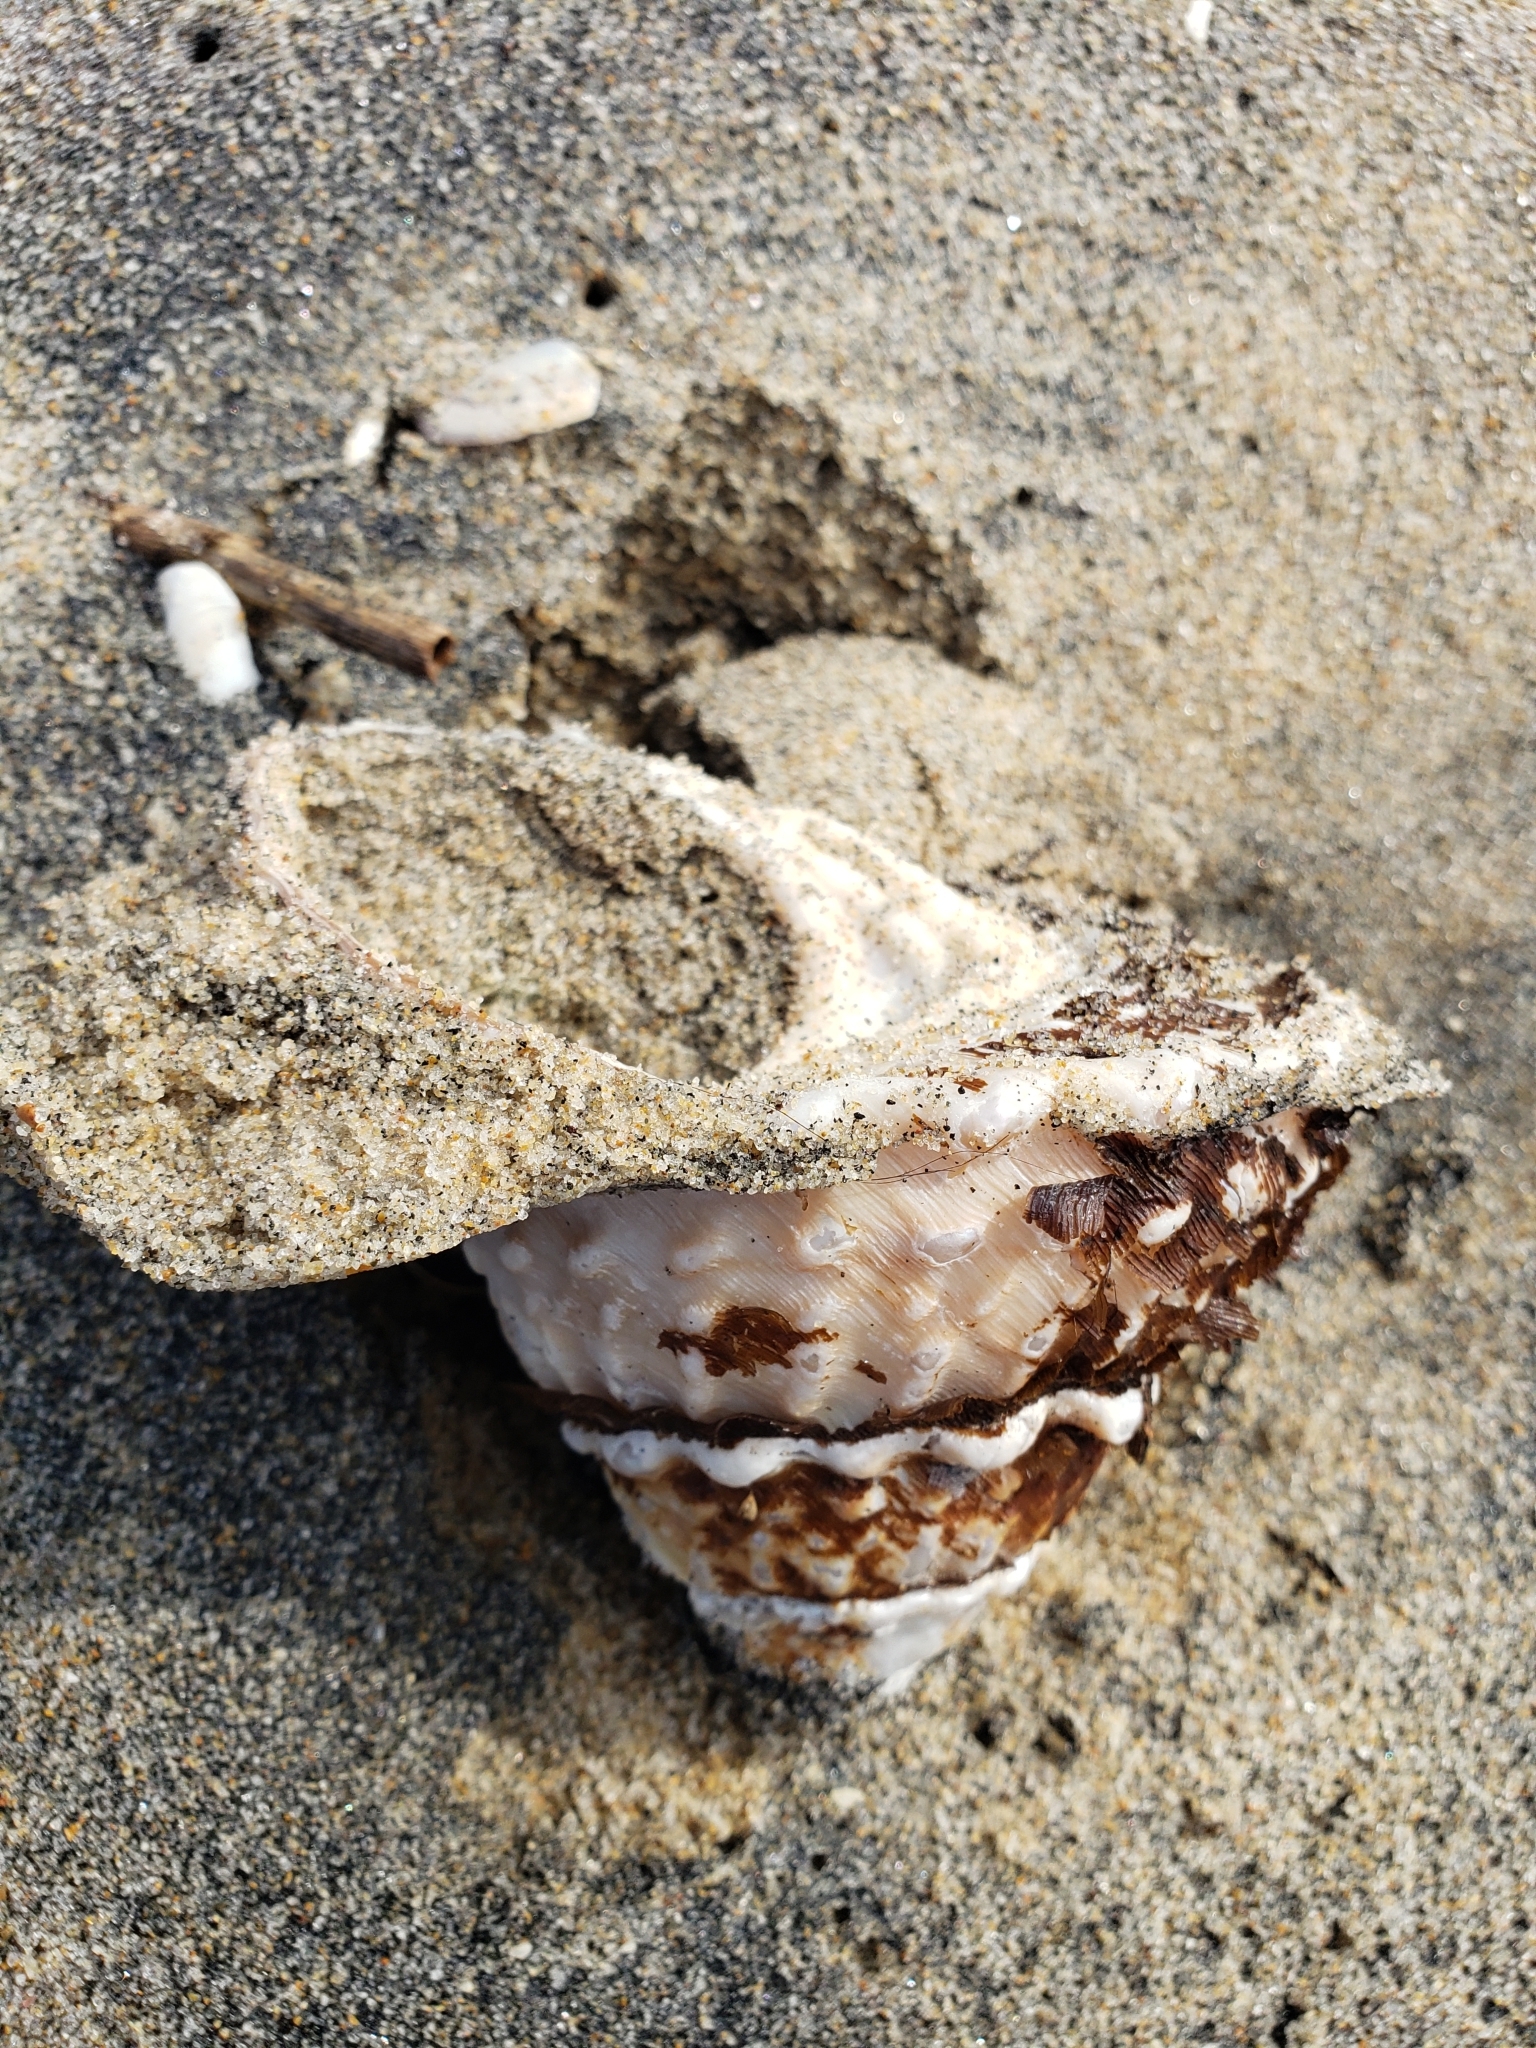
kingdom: Animalia
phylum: Mollusca
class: Gastropoda
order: Trochida
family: Turbinidae
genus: Megastraea
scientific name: Megastraea undosa
